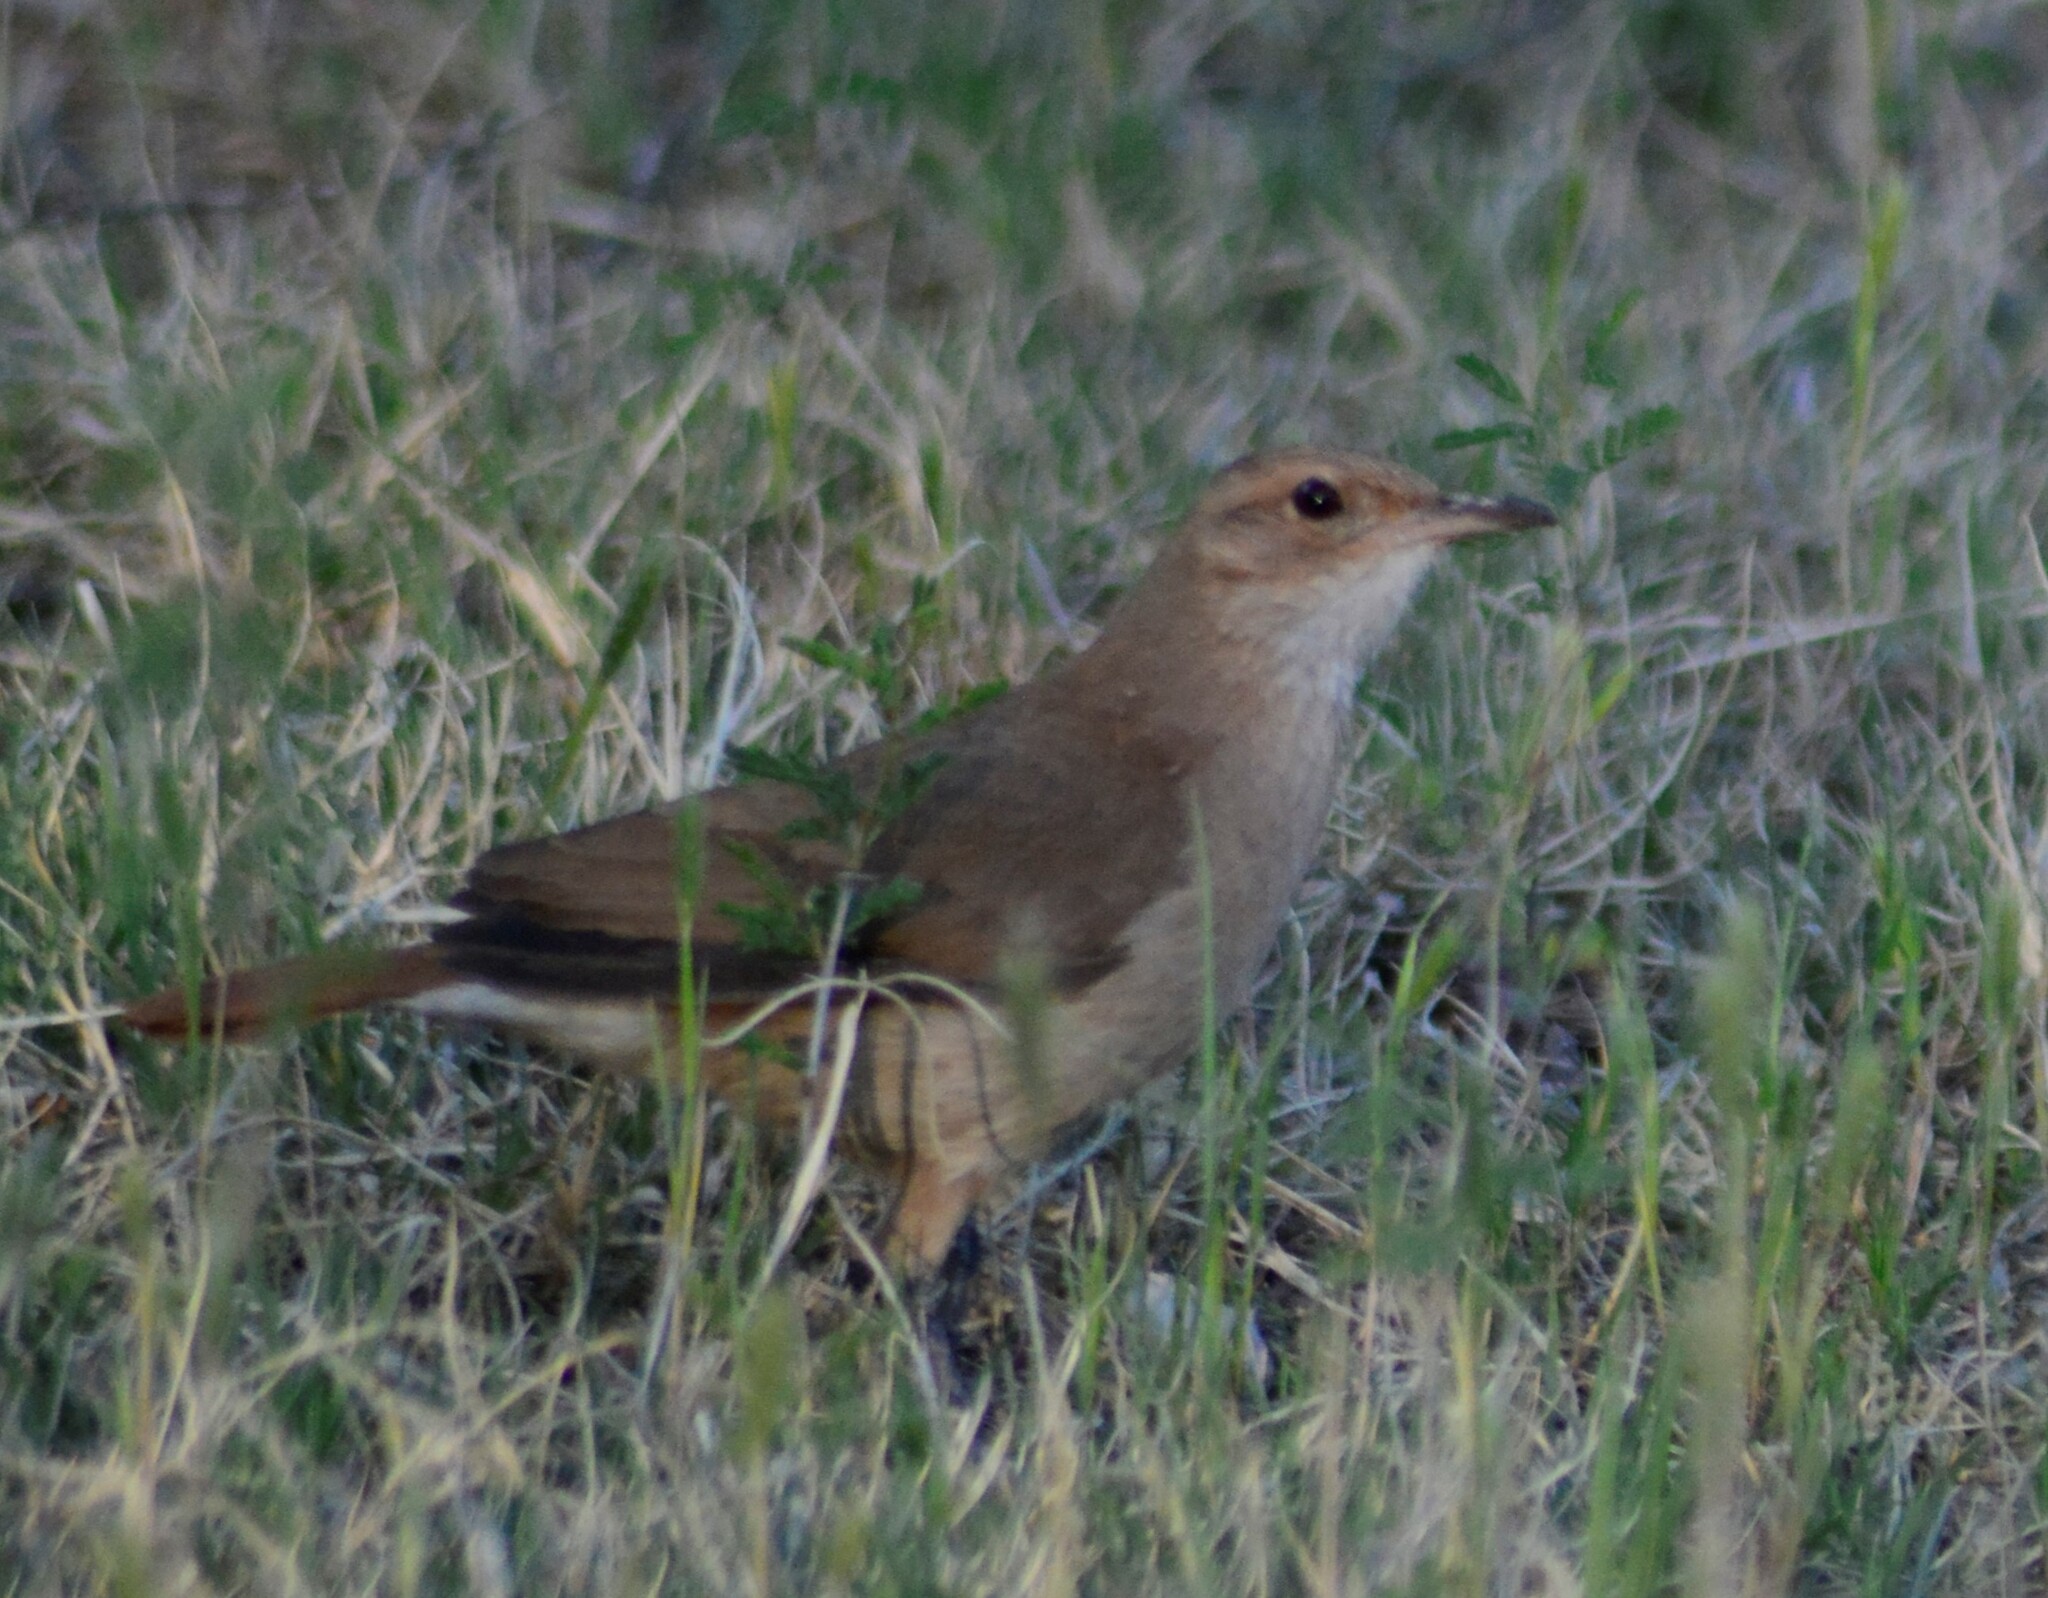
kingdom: Animalia
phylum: Chordata
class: Aves
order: Passeriformes
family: Furnariidae
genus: Furnarius
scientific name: Furnarius rufus
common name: Rufous hornero
